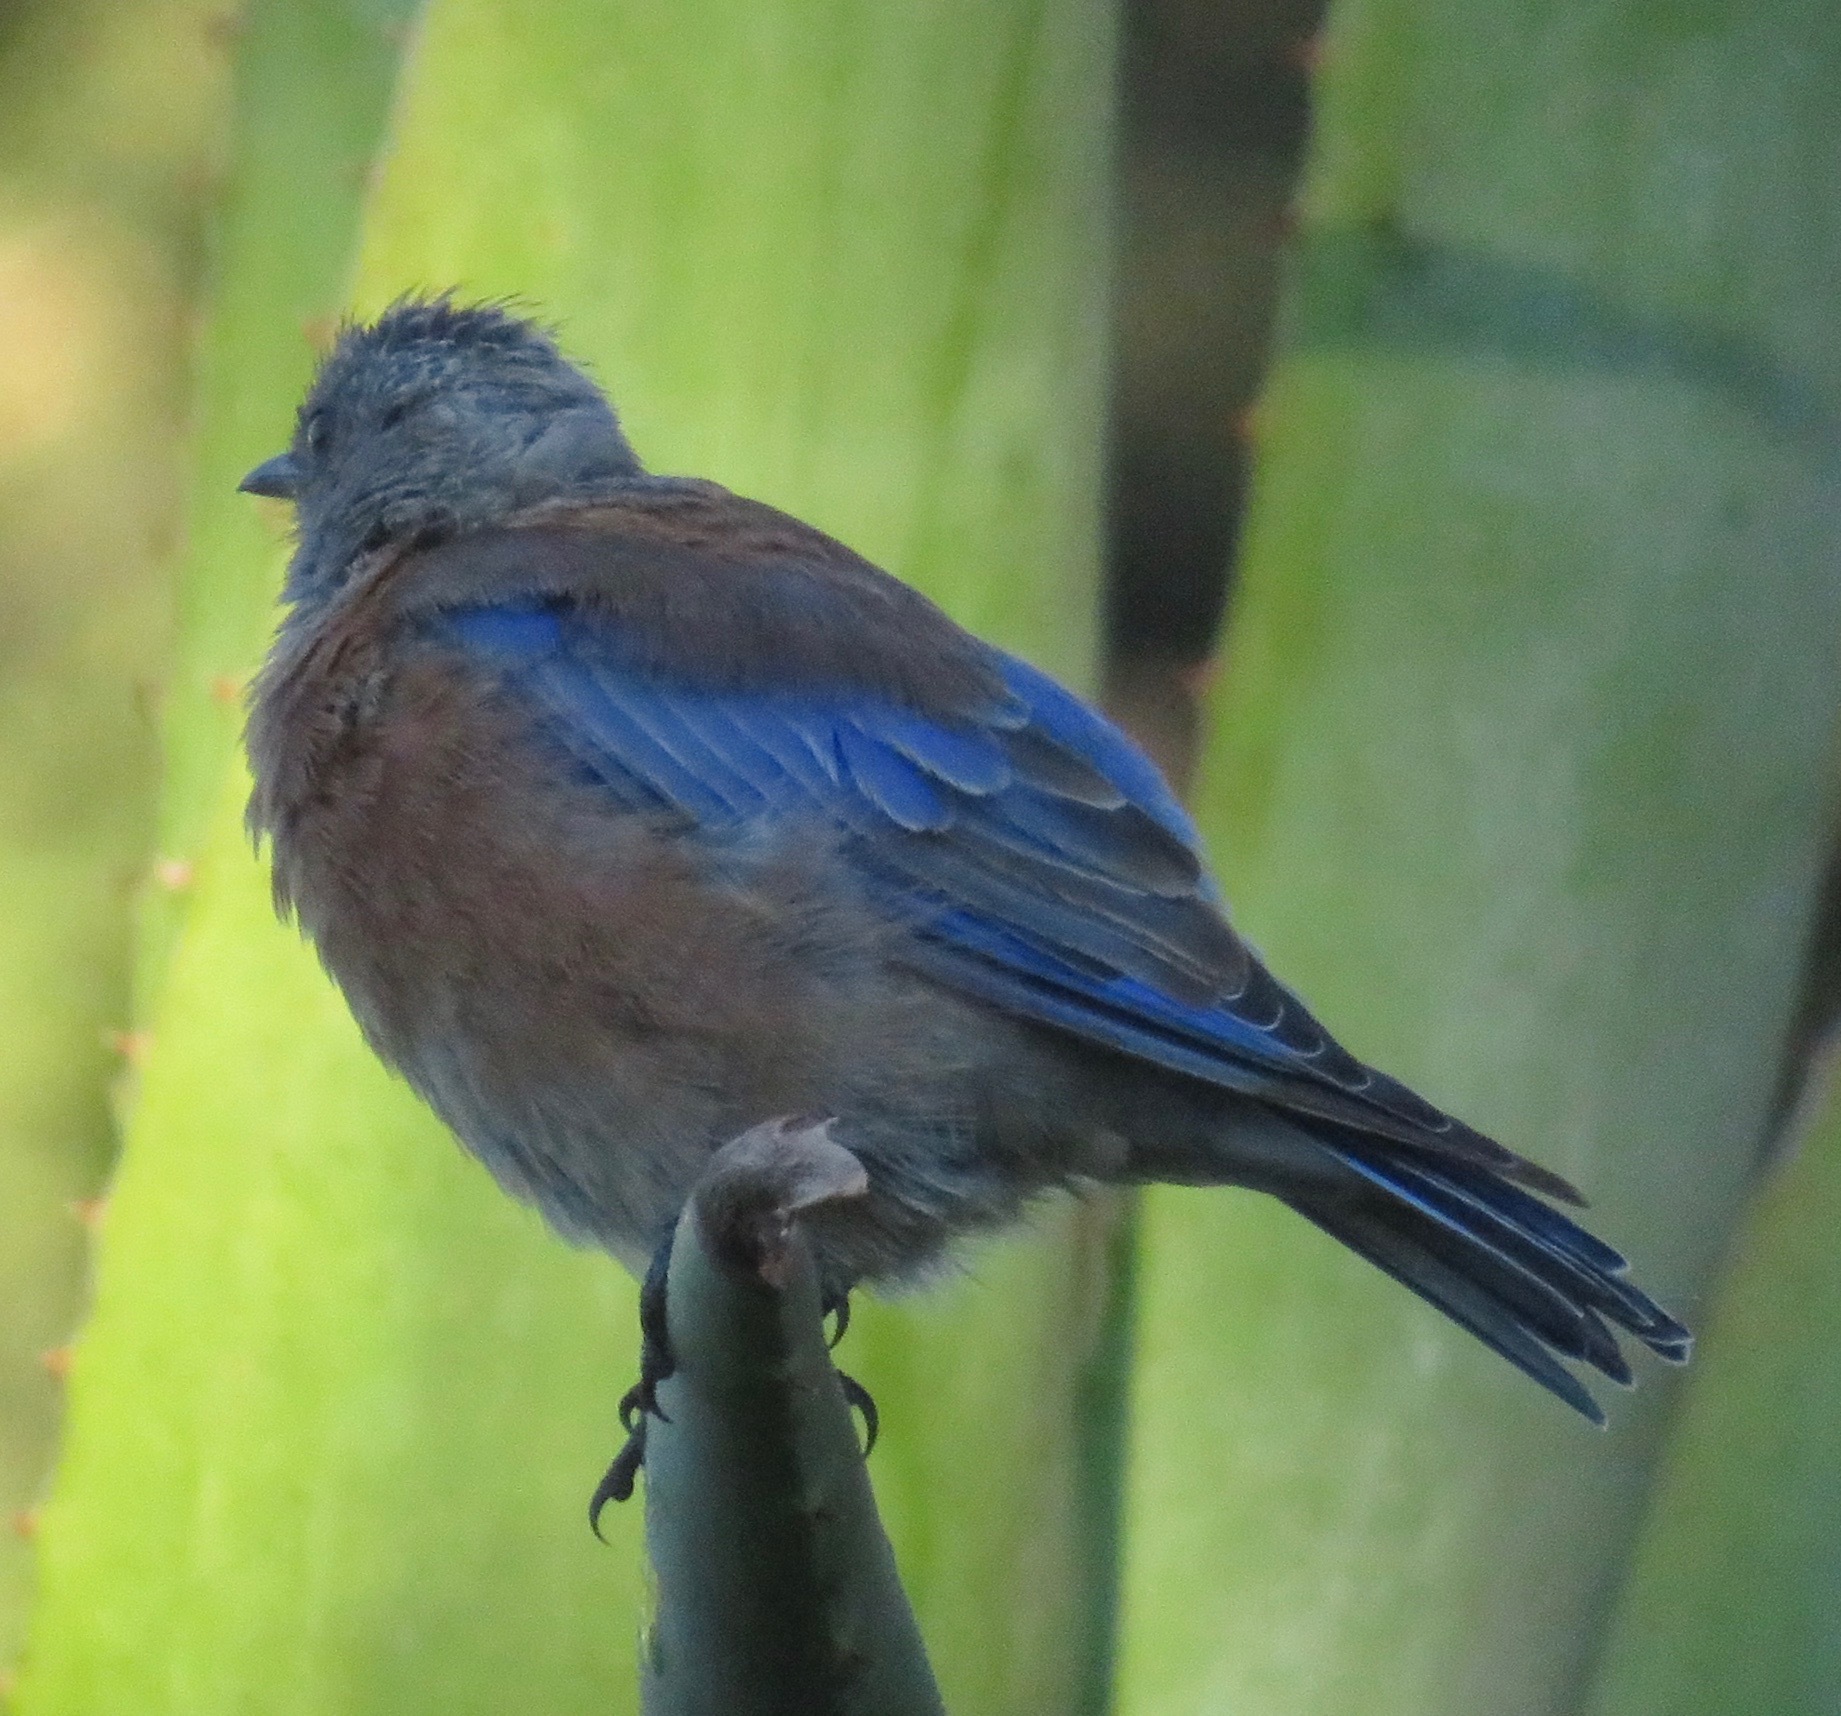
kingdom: Animalia
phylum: Chordata
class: Aves
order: Passeriformes
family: Turdidae
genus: Sialia
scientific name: Sialia mexicana
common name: Western bluebird
